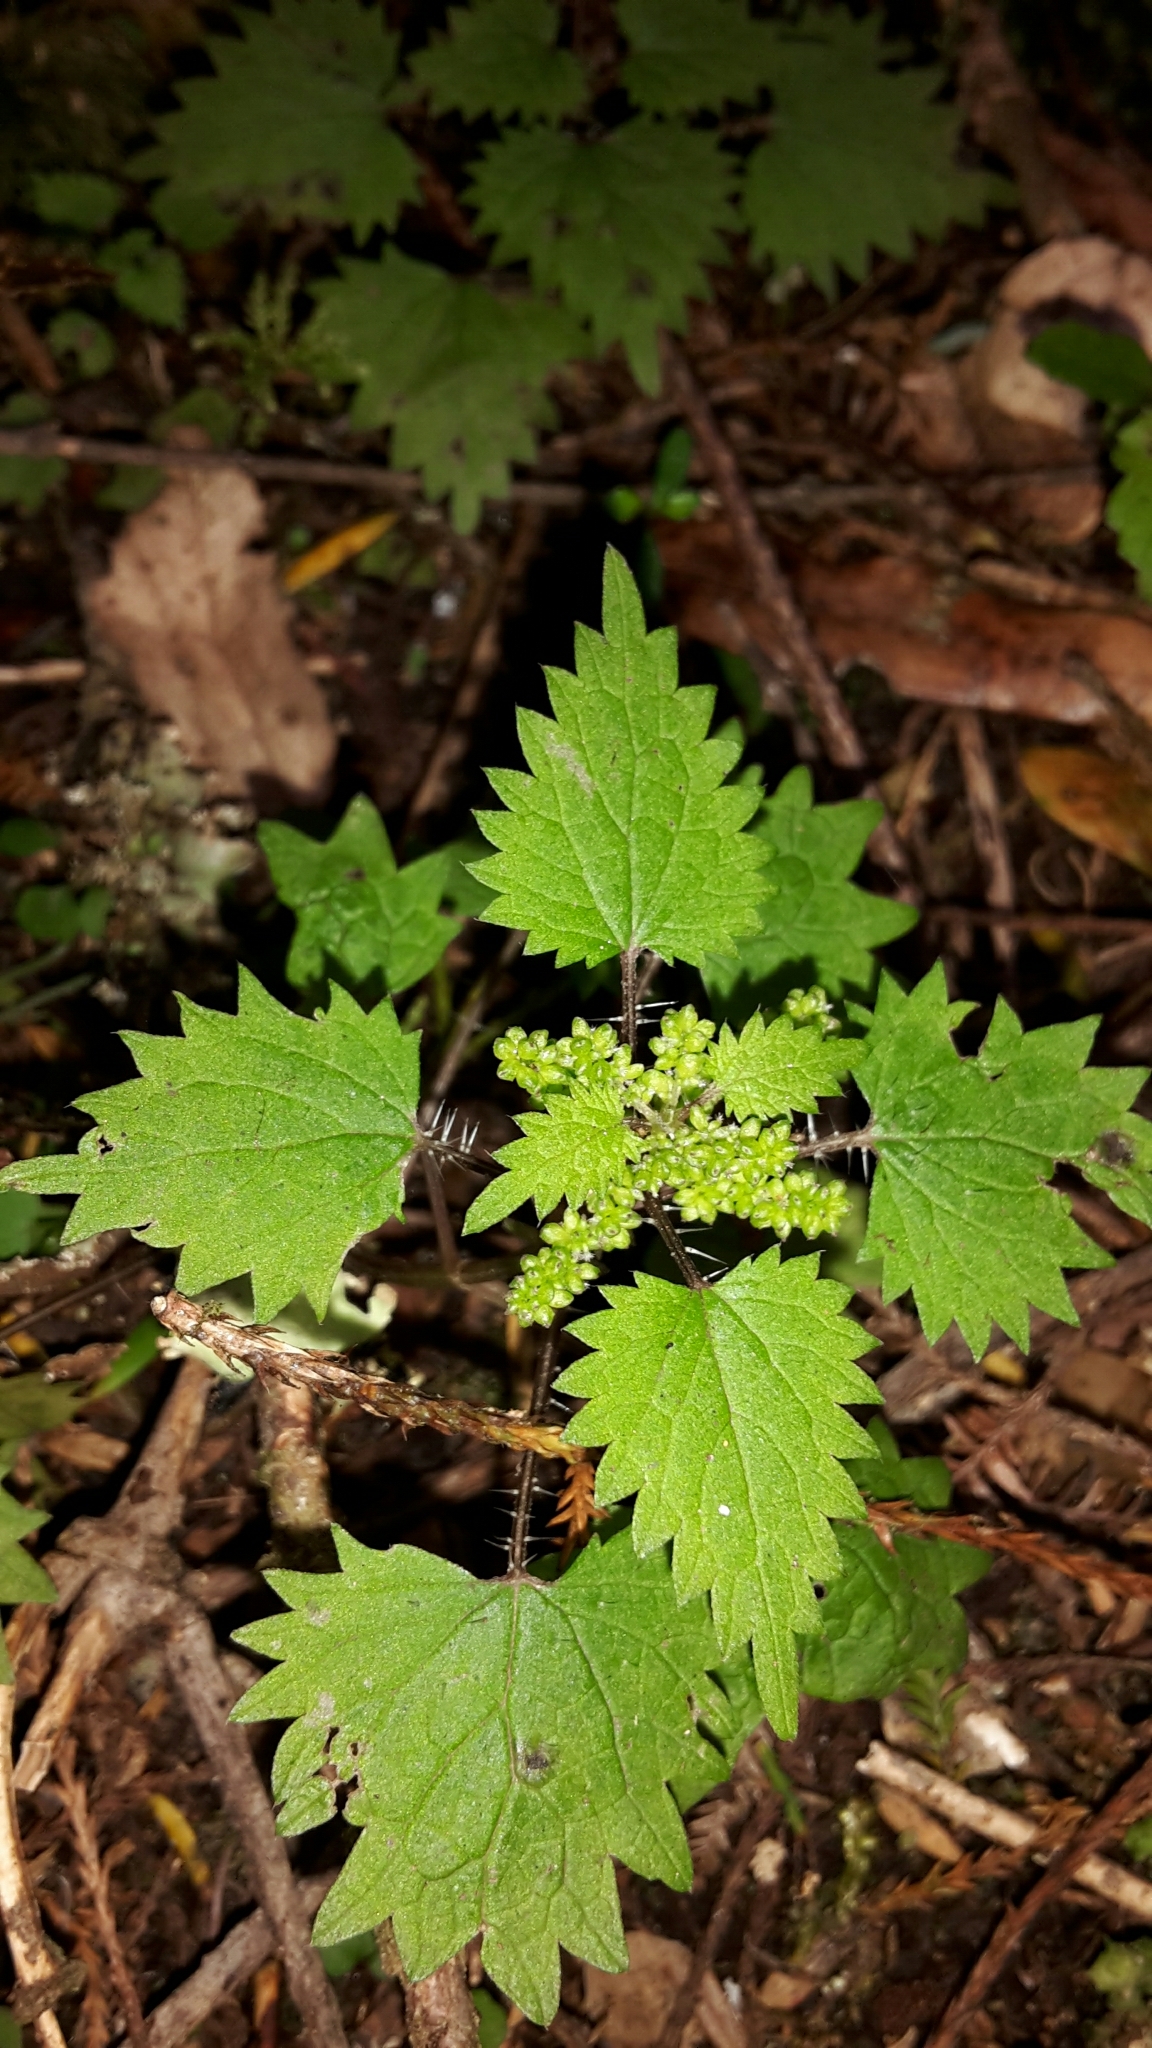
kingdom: Plantae
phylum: Tracheophyta
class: Magnoliopsida
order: Rosales
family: Urticaceae
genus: Urtica
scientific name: Urtica sykesii
